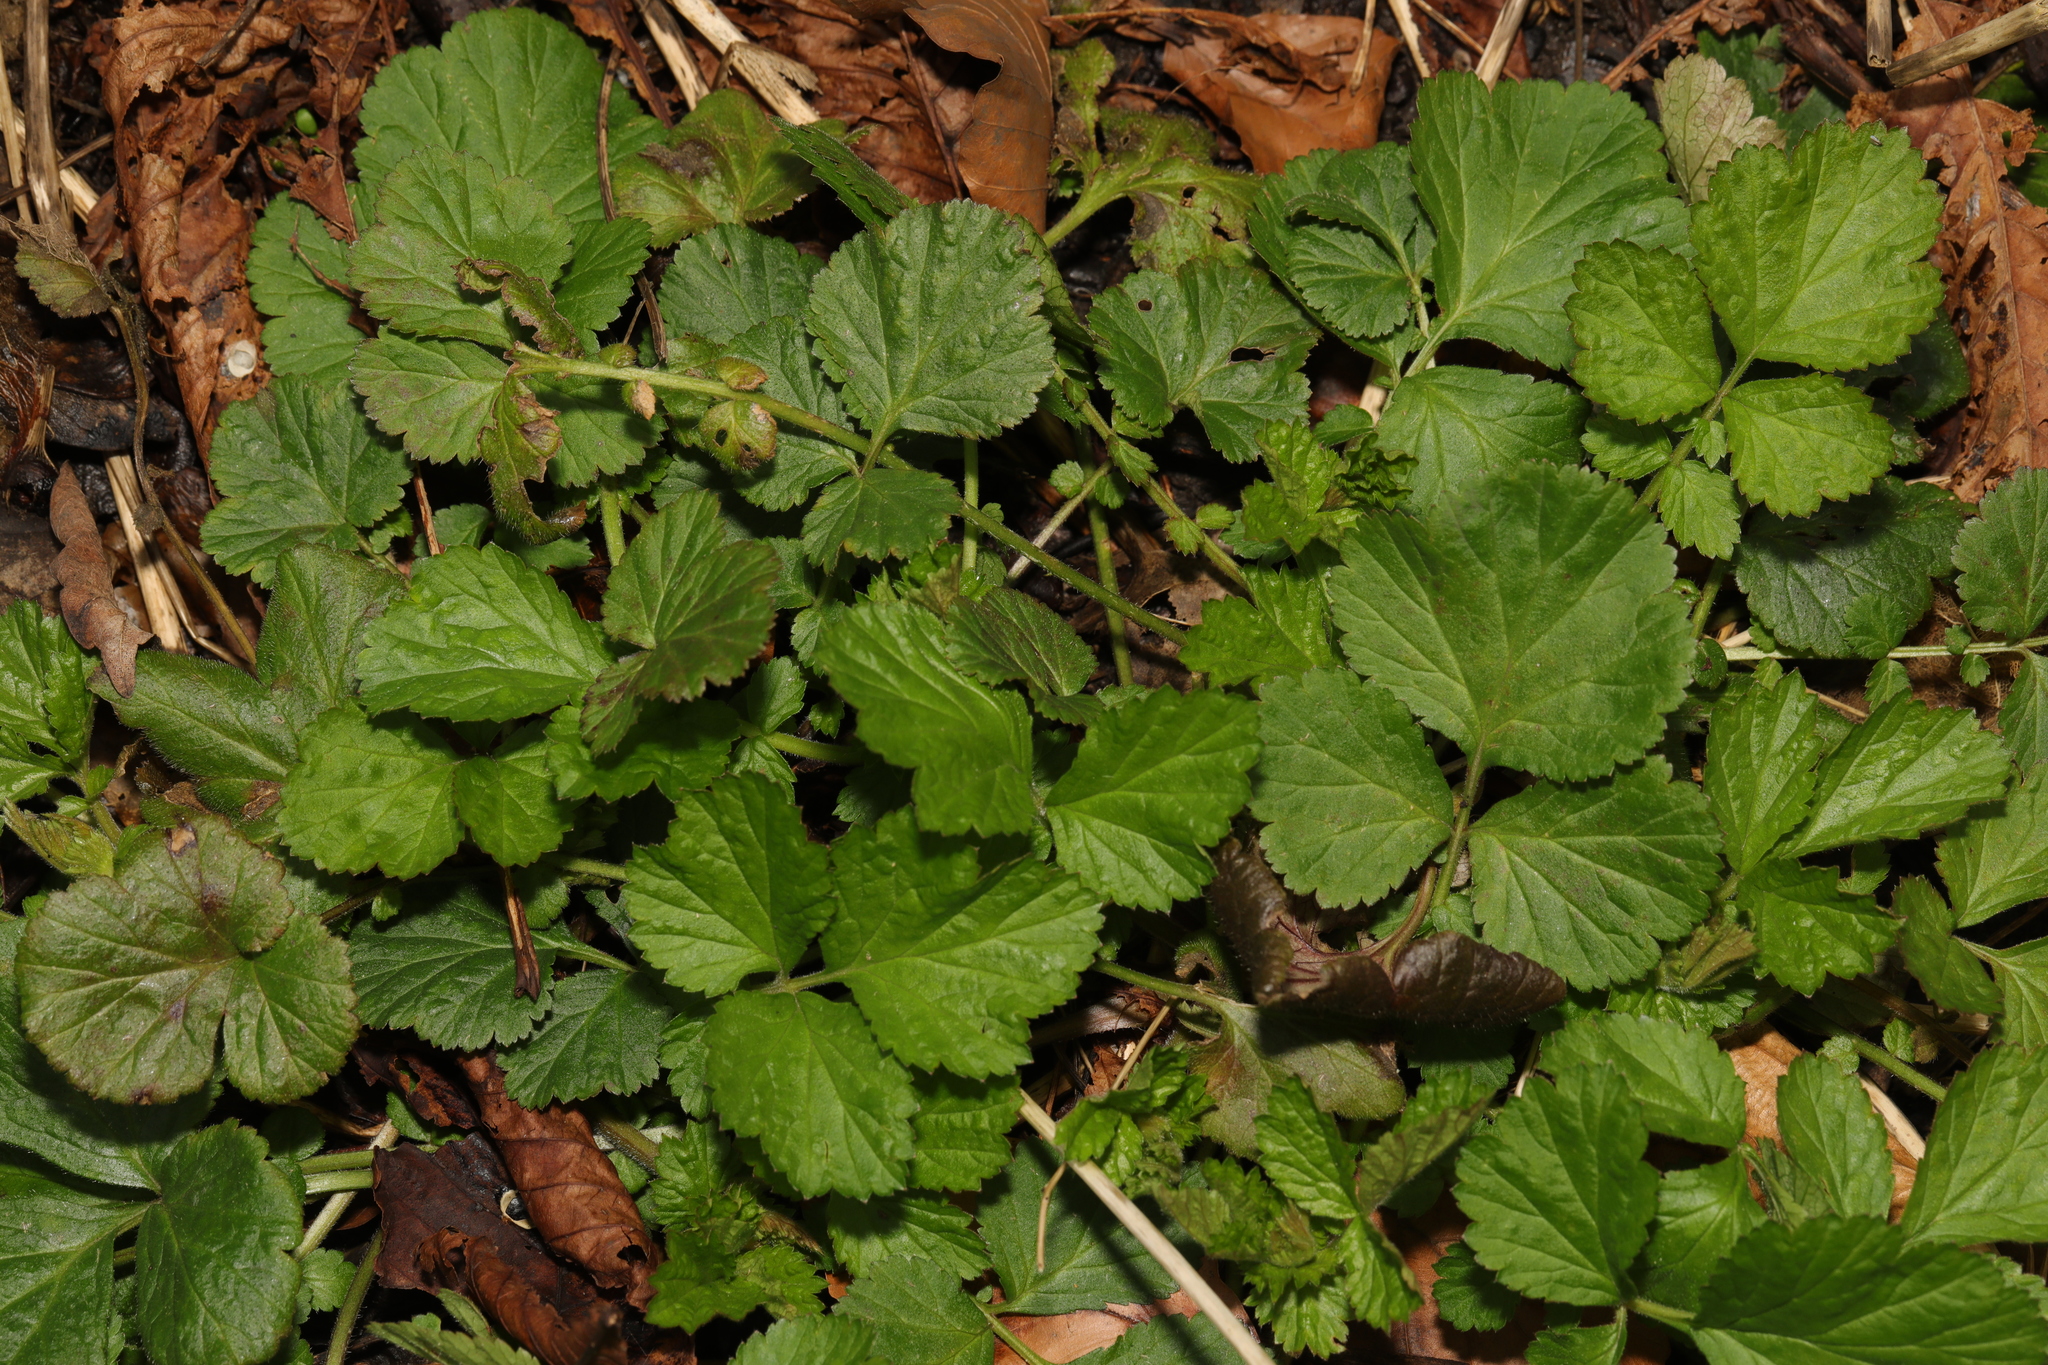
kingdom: Plantae
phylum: Tracheophyta
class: Magnoliopsida
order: Rosales
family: Rosaceae
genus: Geum
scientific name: Geum urbanum
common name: Wood avens
